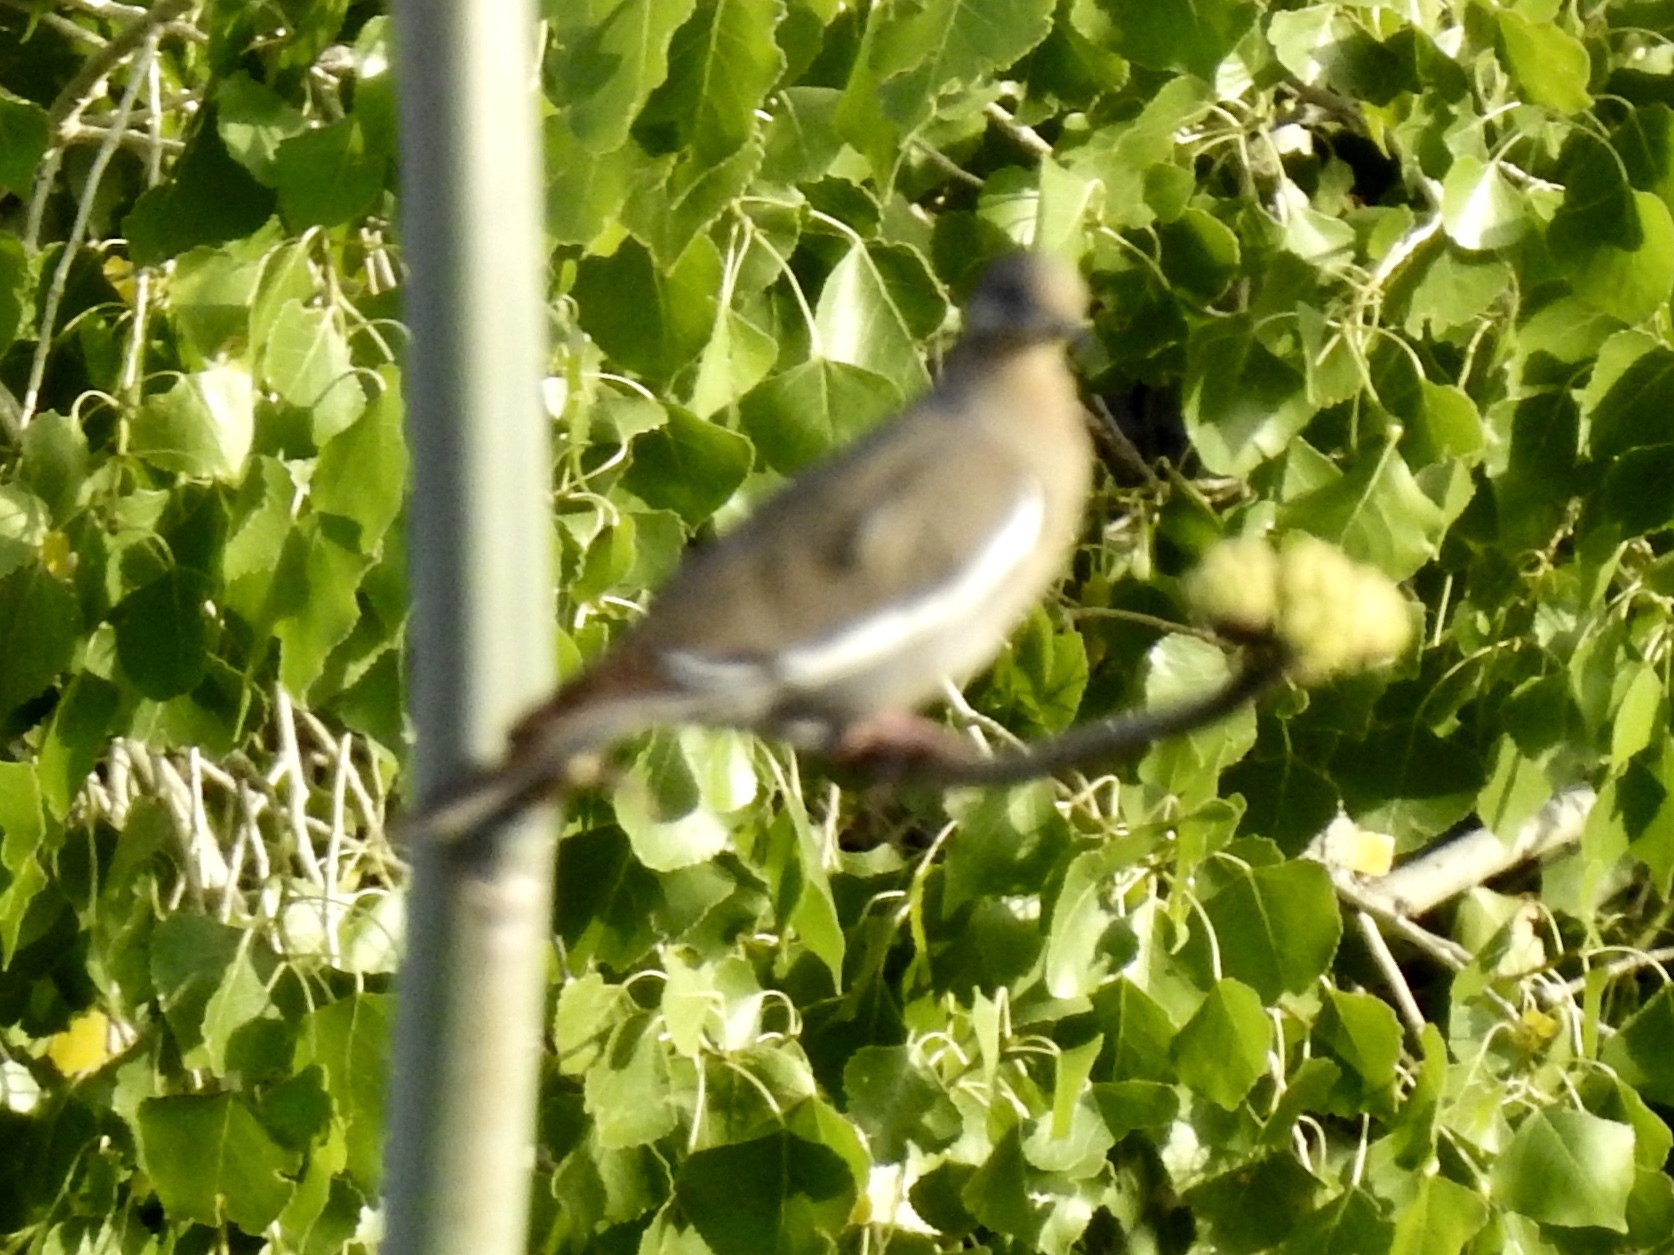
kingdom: Animalia
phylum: Chordata
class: Aves
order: Columbiformes
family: Columbidae
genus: Zenaida
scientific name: Zenaida asiatica
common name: White-winged dove
